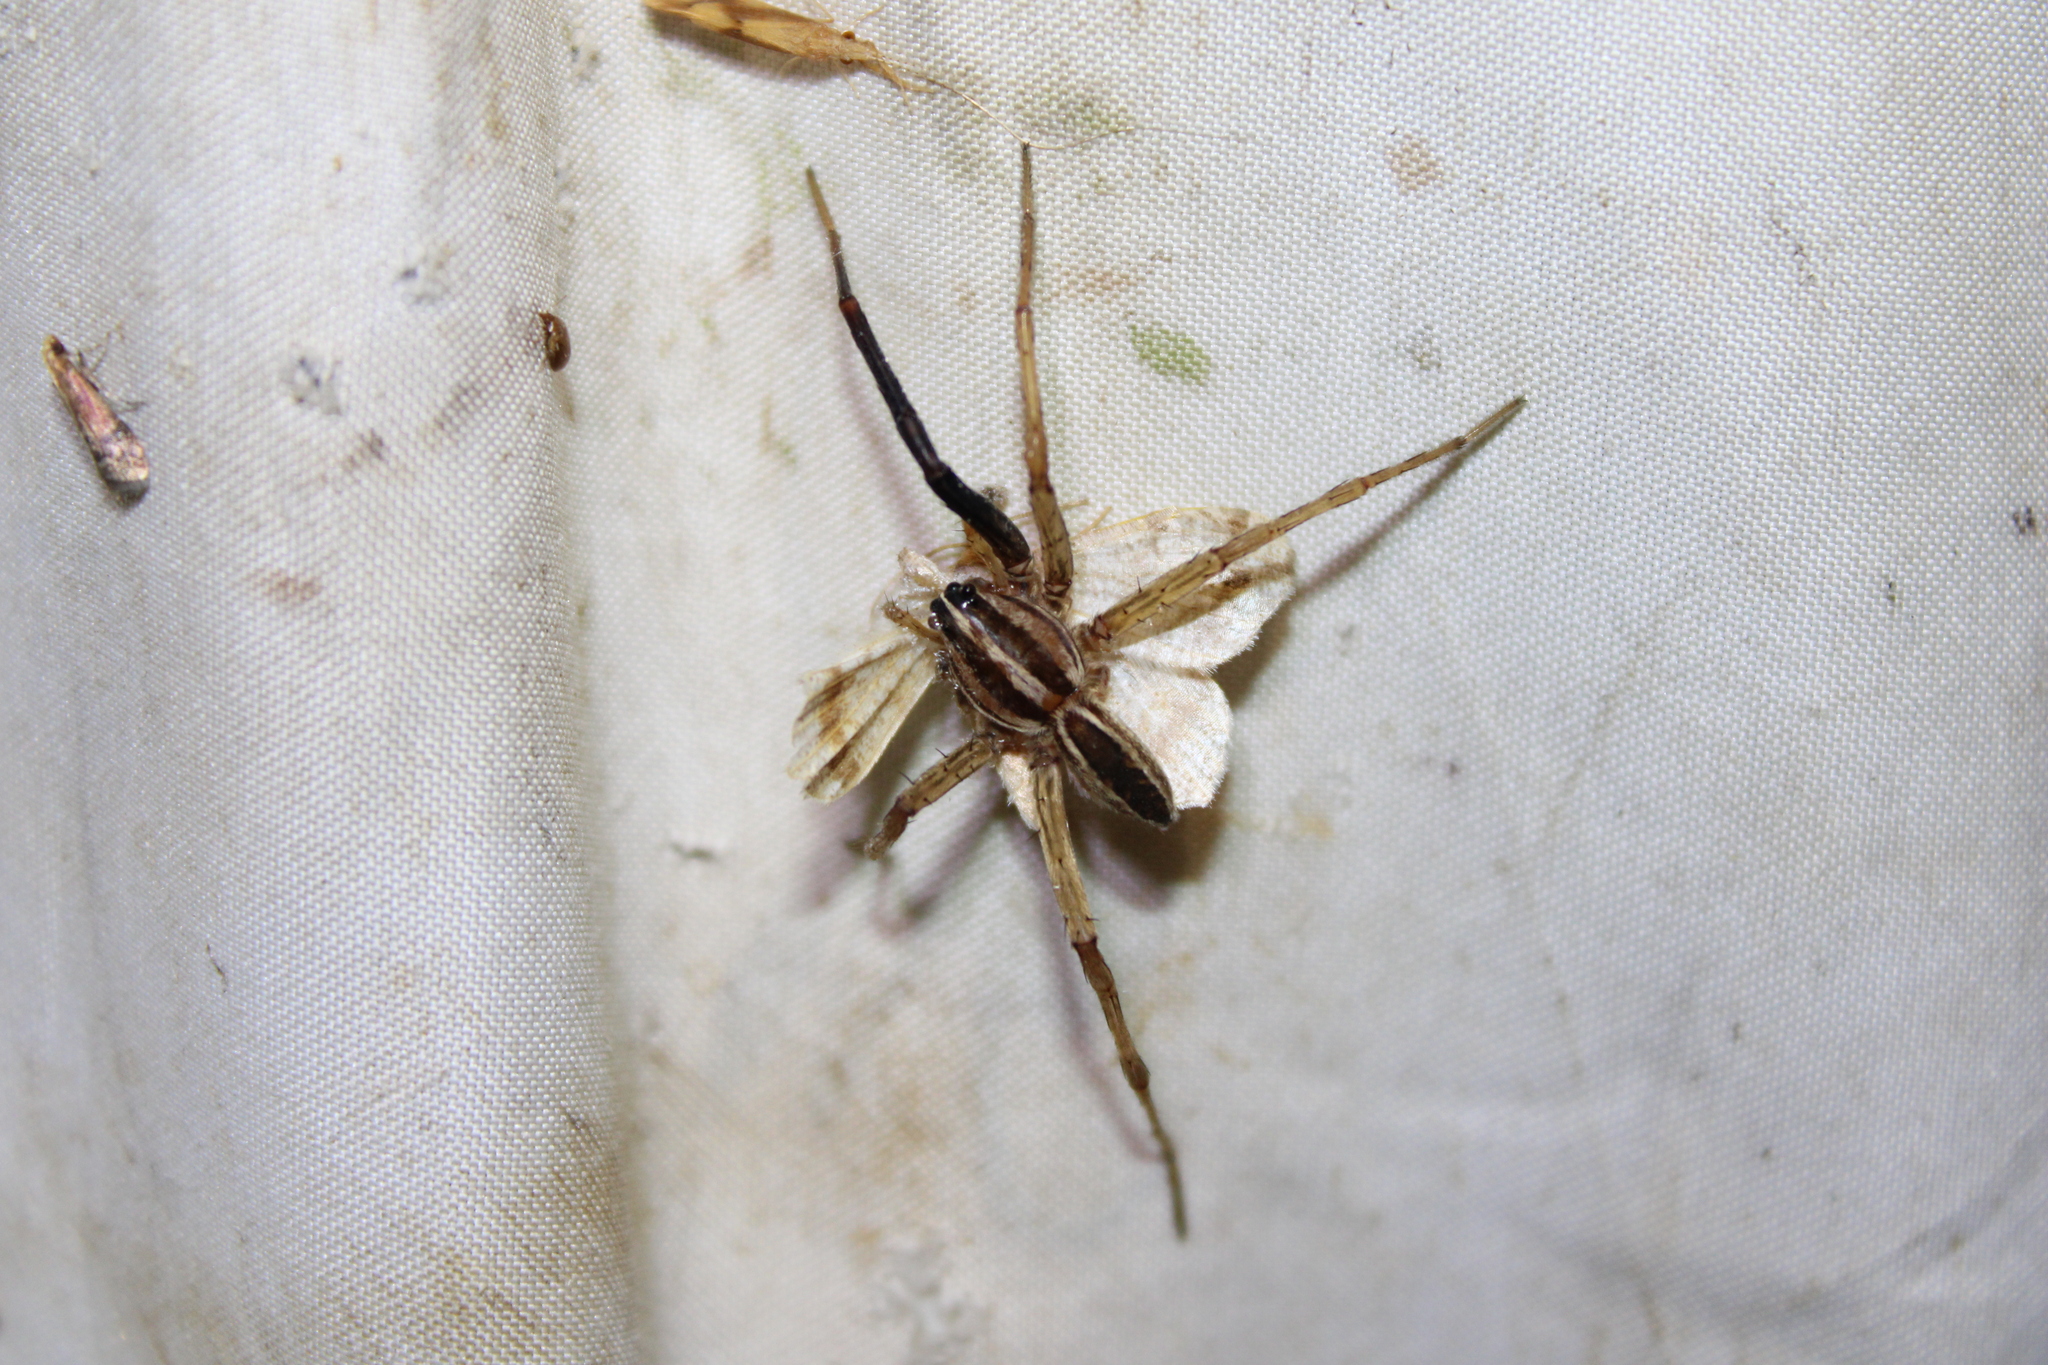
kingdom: Animalia
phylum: Arthropoda
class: Arachnida
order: Araneae
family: Lycosidae
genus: Rabidosa
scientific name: Rabidosa rabida
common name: Rabid wolf spider
